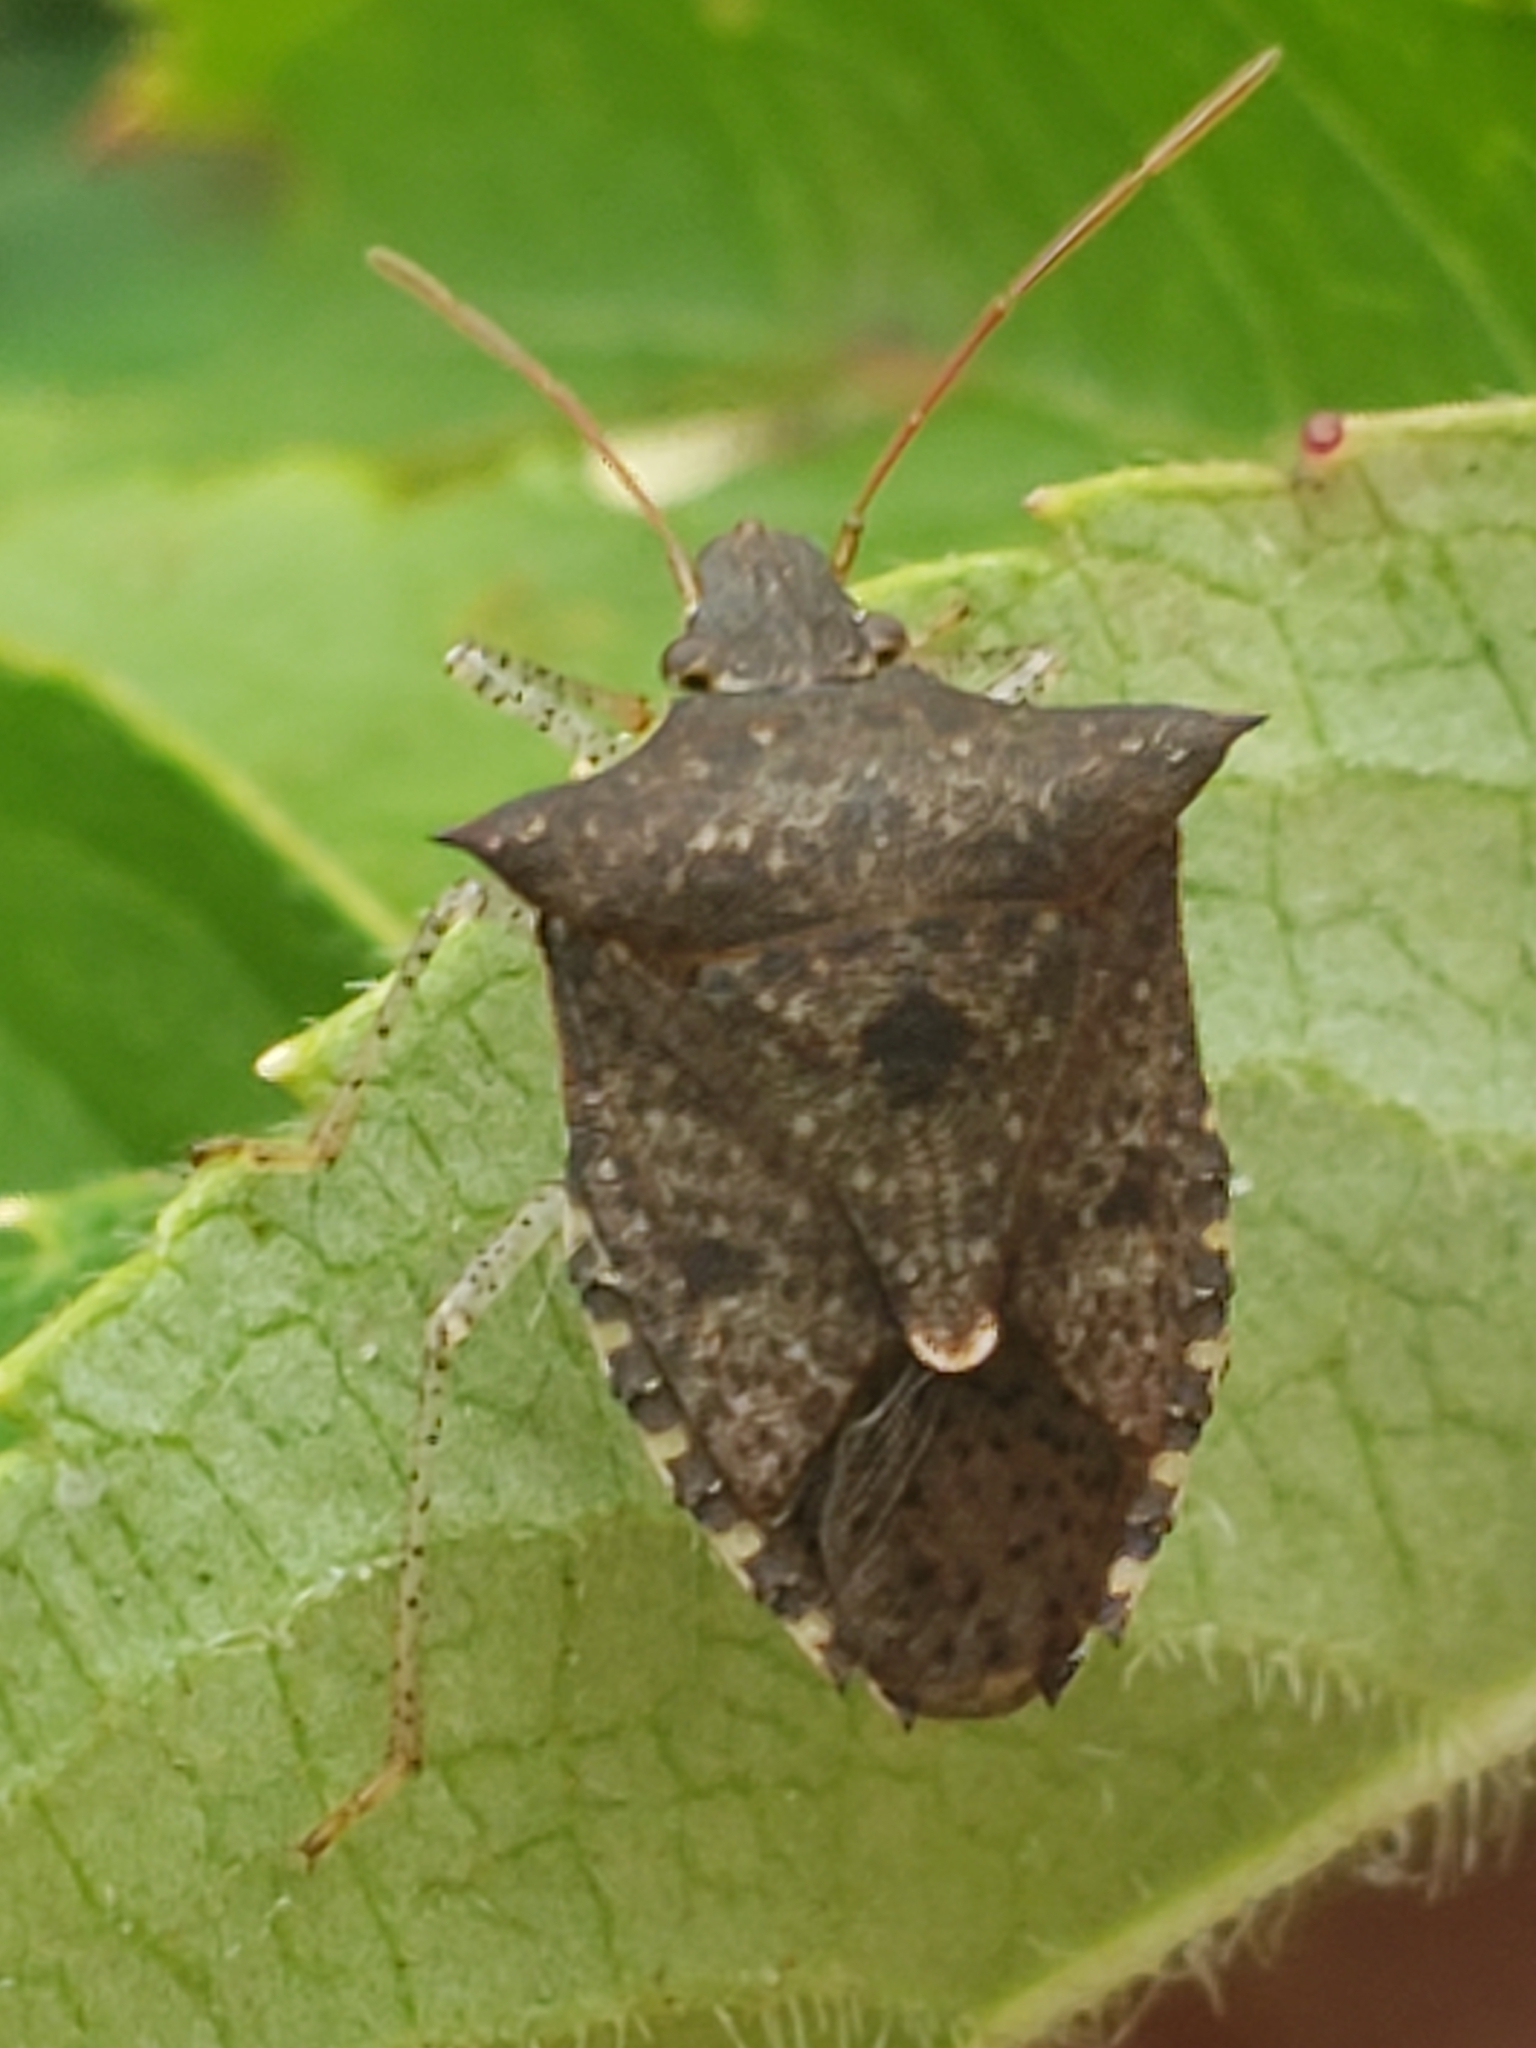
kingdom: Animalia
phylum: Arthropoda
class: Insecta
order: Hemiptera
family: Pentatomidae
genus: Euschistus
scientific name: Euschistus tristigmus
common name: Dusky stink bug
